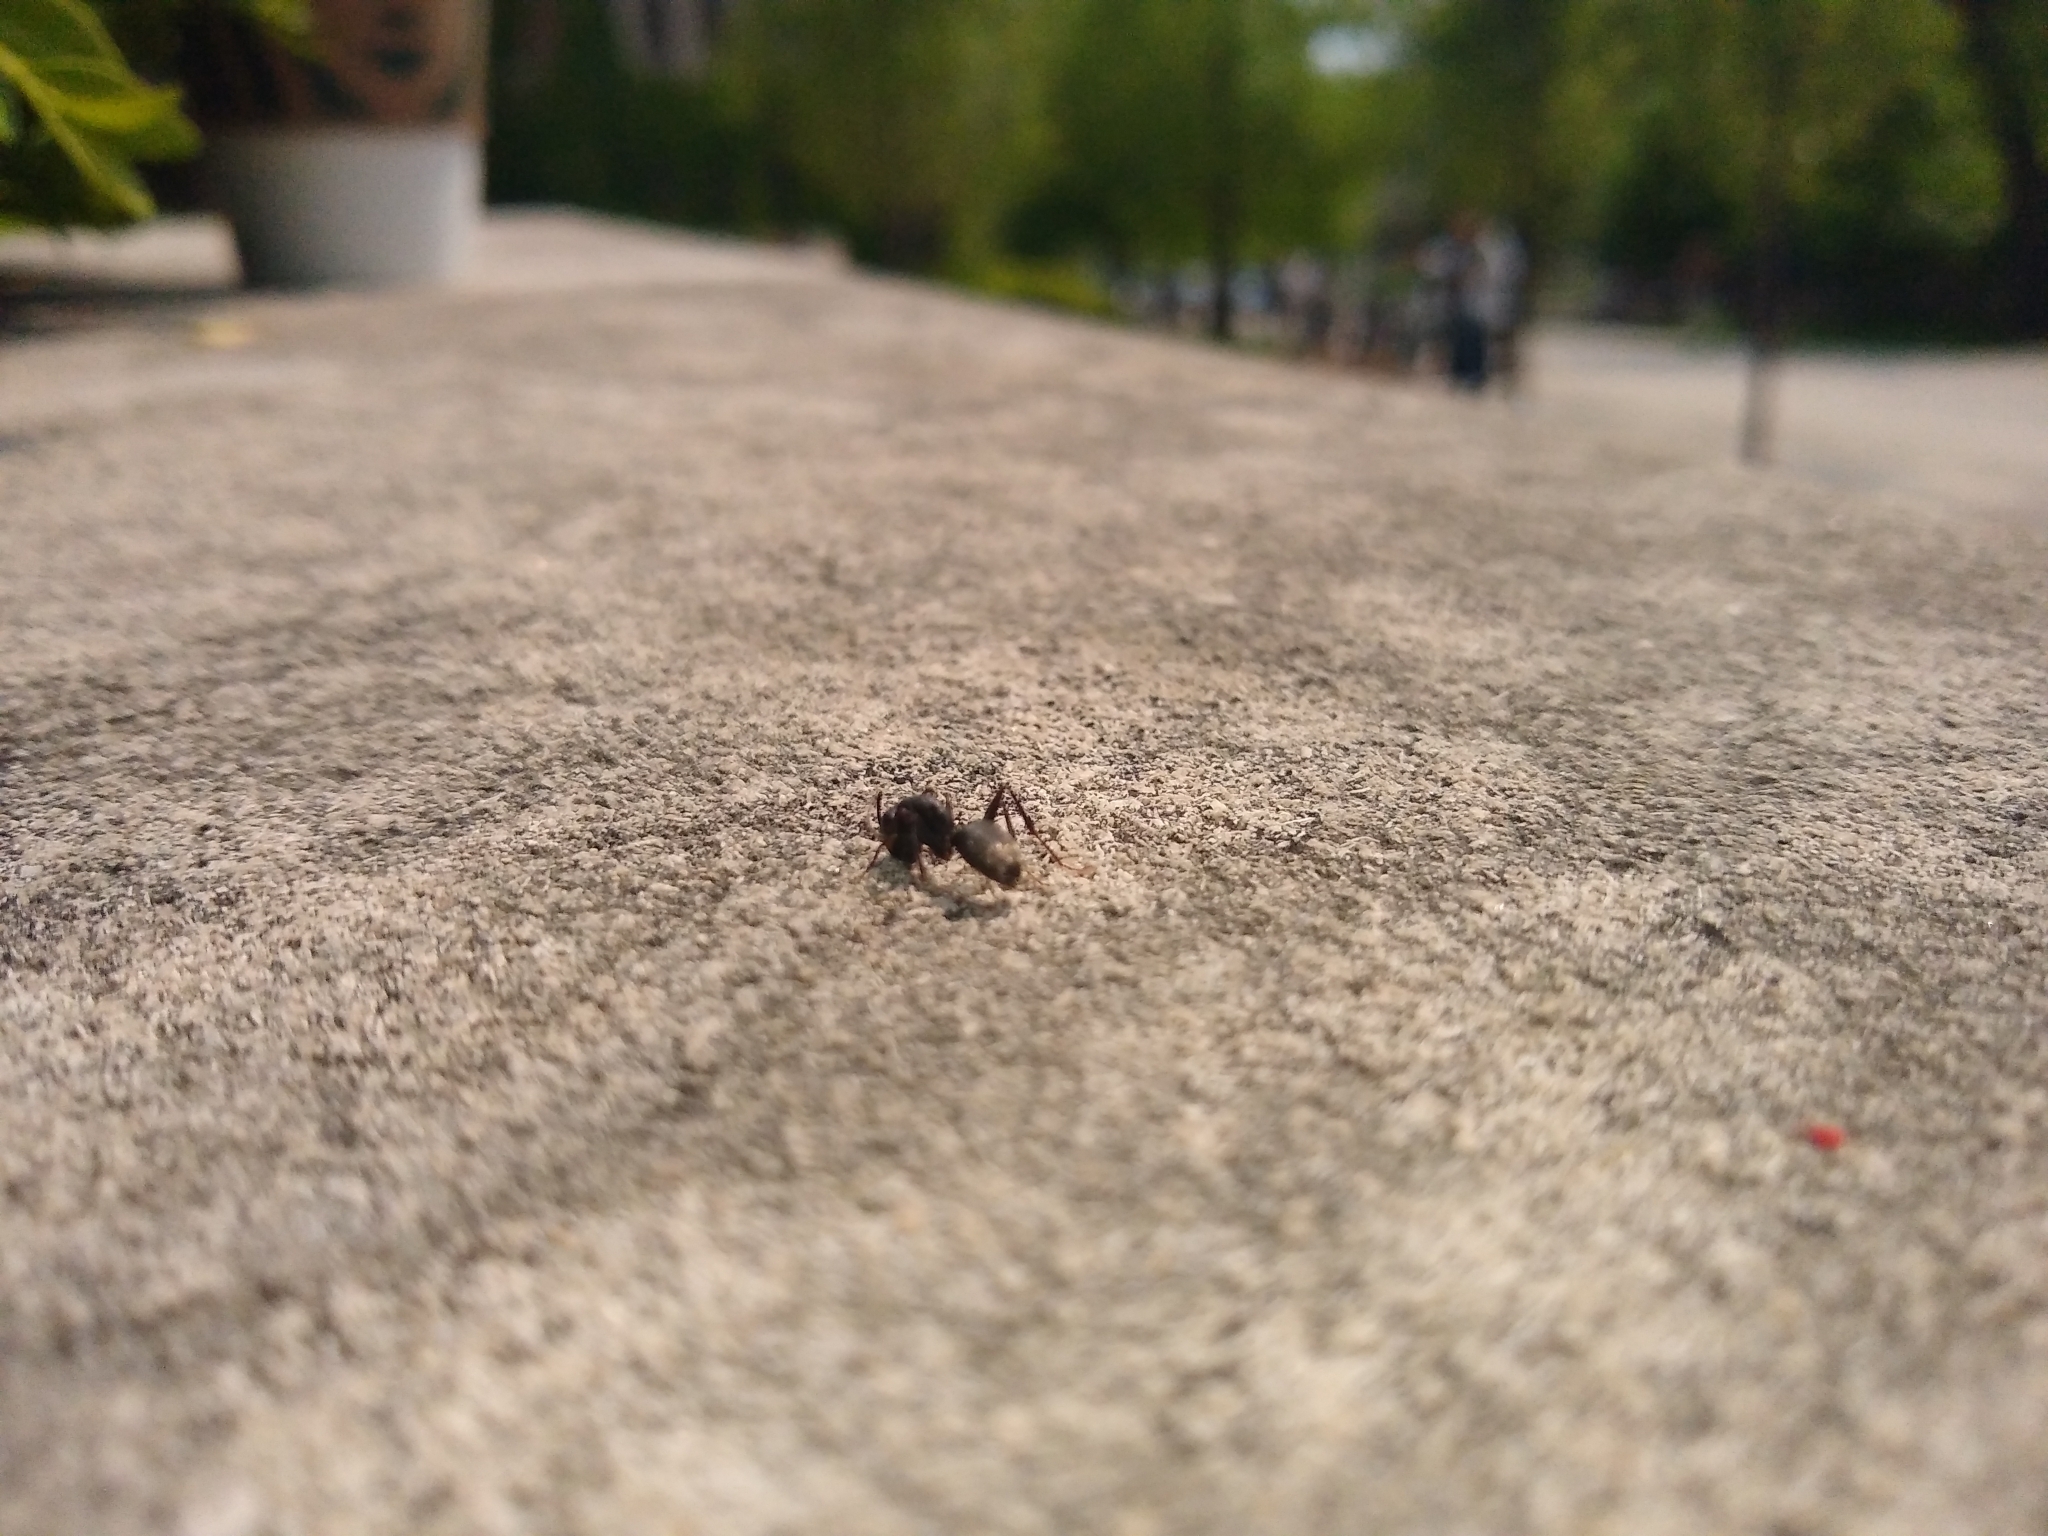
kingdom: Animalia
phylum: Arthropoda
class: Insecta
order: Hymenoptera
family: Formicidae
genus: Camponotus
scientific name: Camponotus pennsylvanicus
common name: Black carpenter ant
